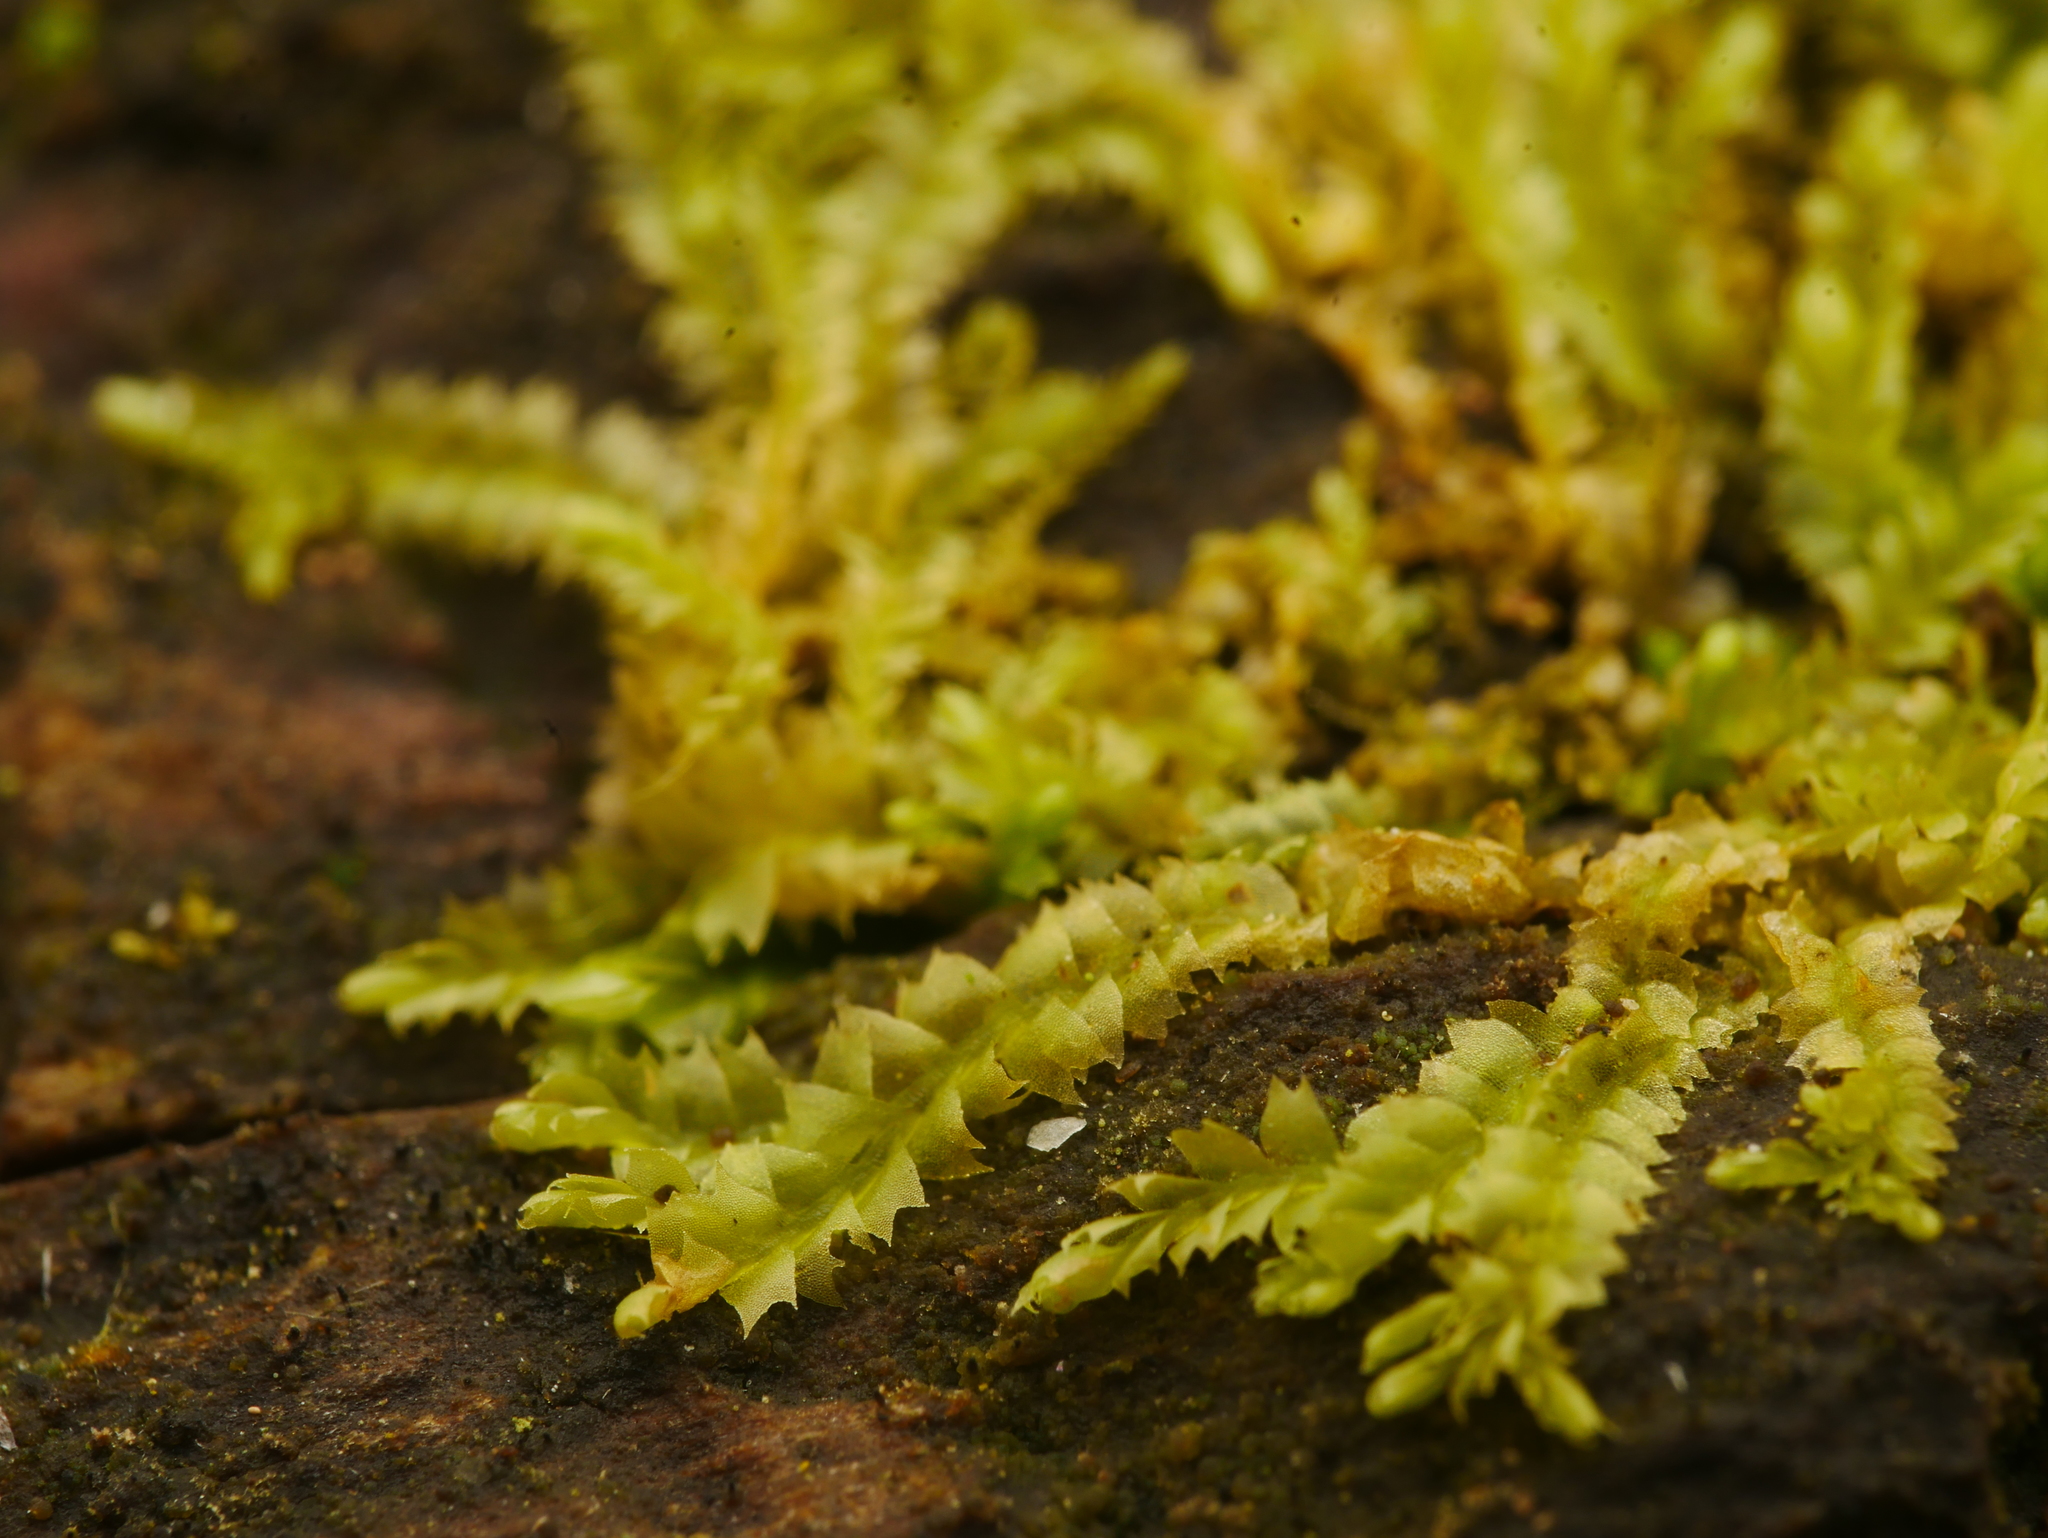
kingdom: Plantae
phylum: Marchantiophyta
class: Jungermanniopsida
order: Jungermanniales
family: Lophocoleaceae
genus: Lophocolea
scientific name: Lophocolea heterophylla
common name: Variable-leaved crestwort
